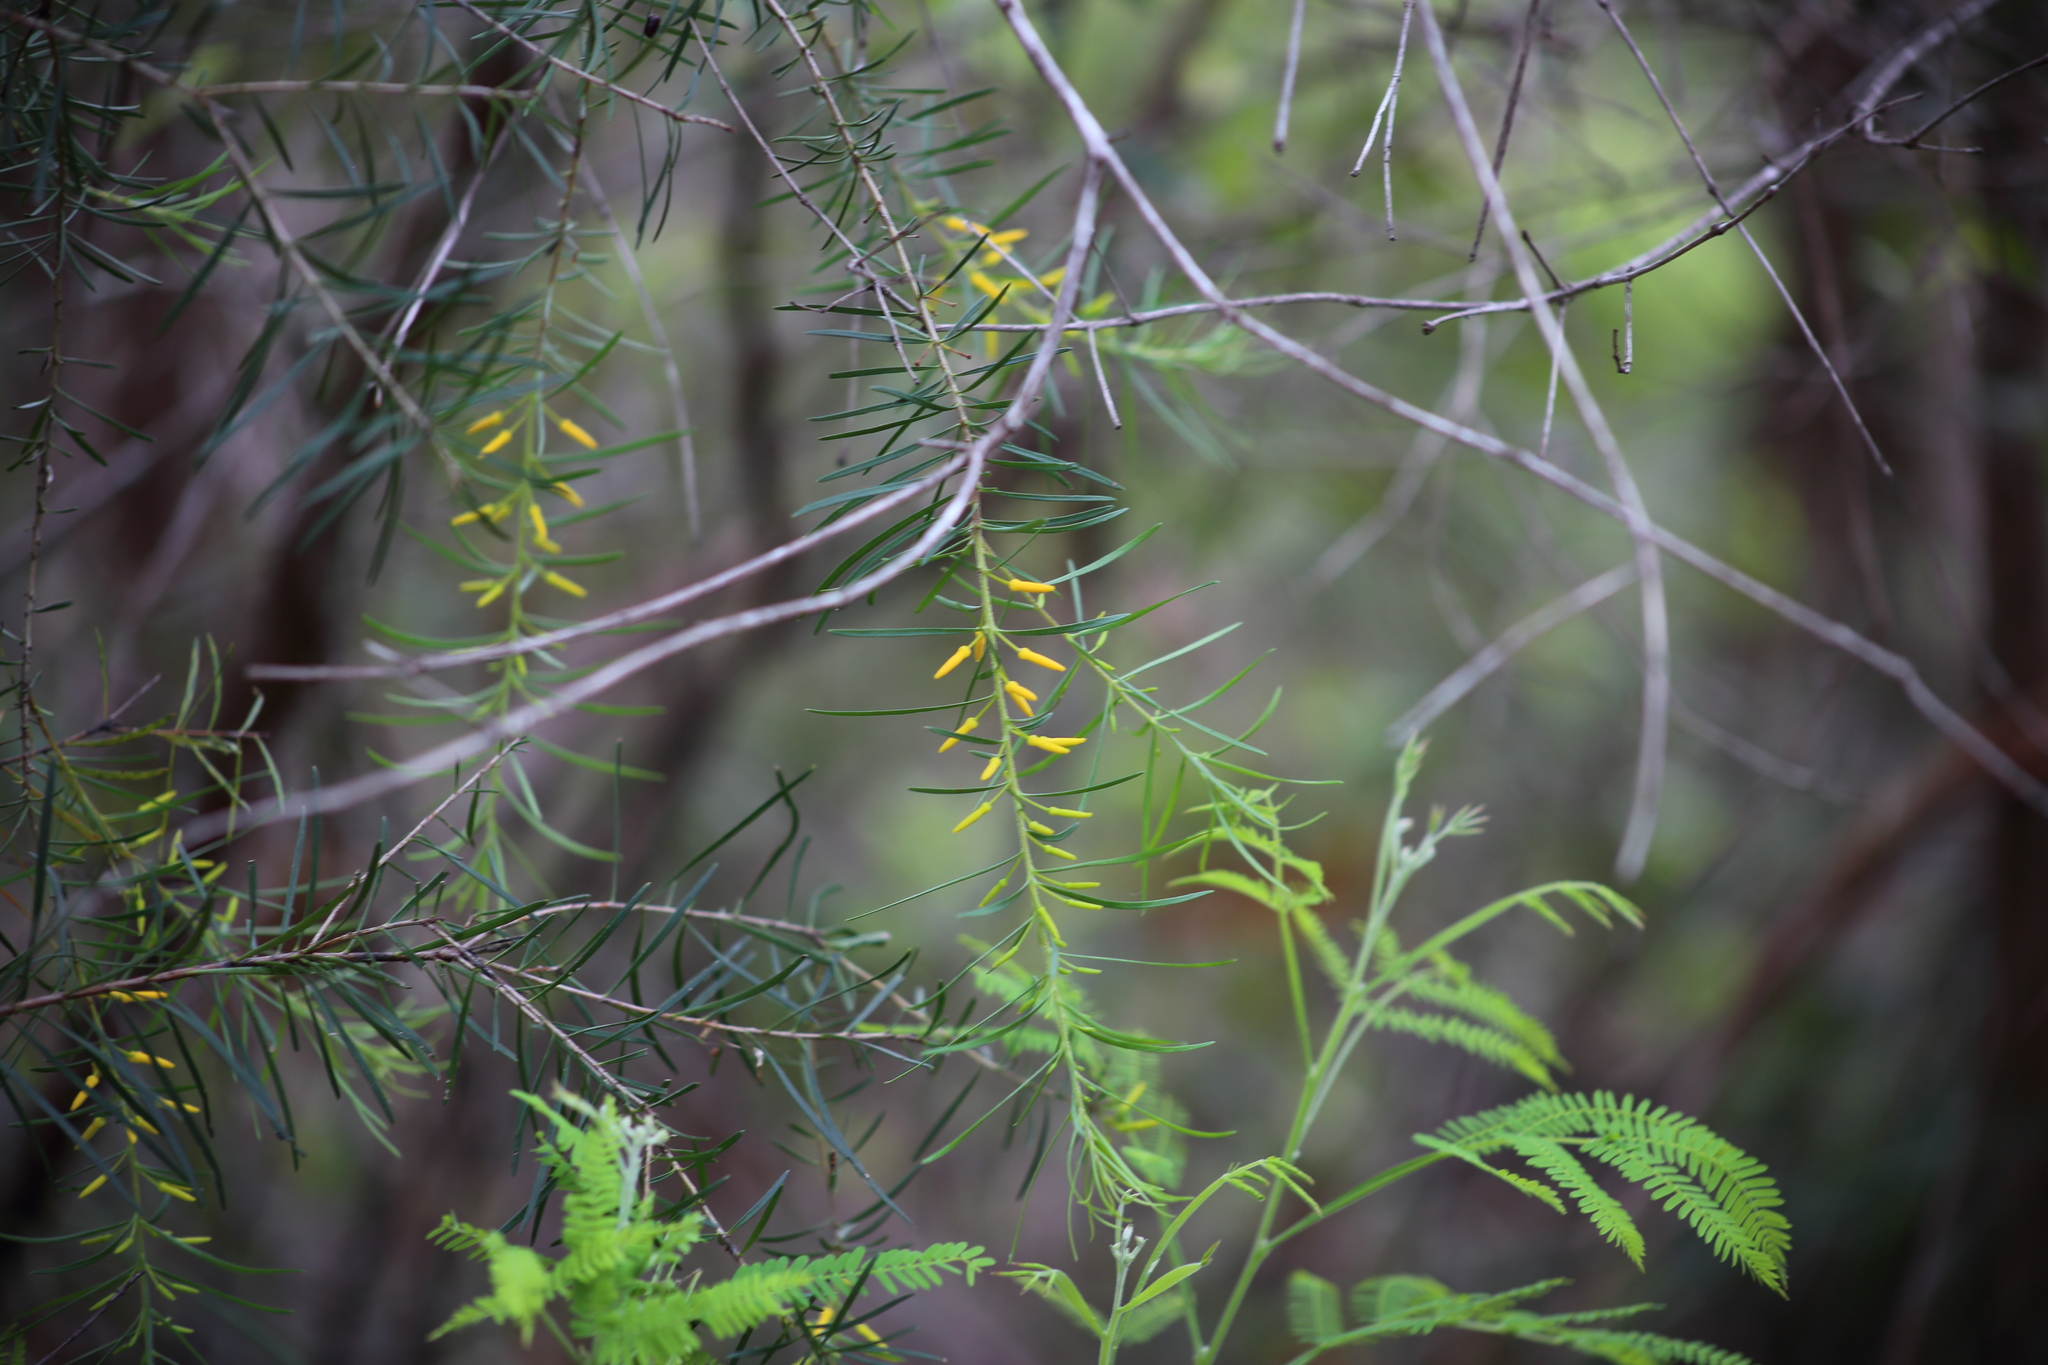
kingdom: Plantae
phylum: Tracheophyta
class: Magnoliopsida
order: Proteales
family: Proteaceae
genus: Persoonia
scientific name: Persoonia virgata
